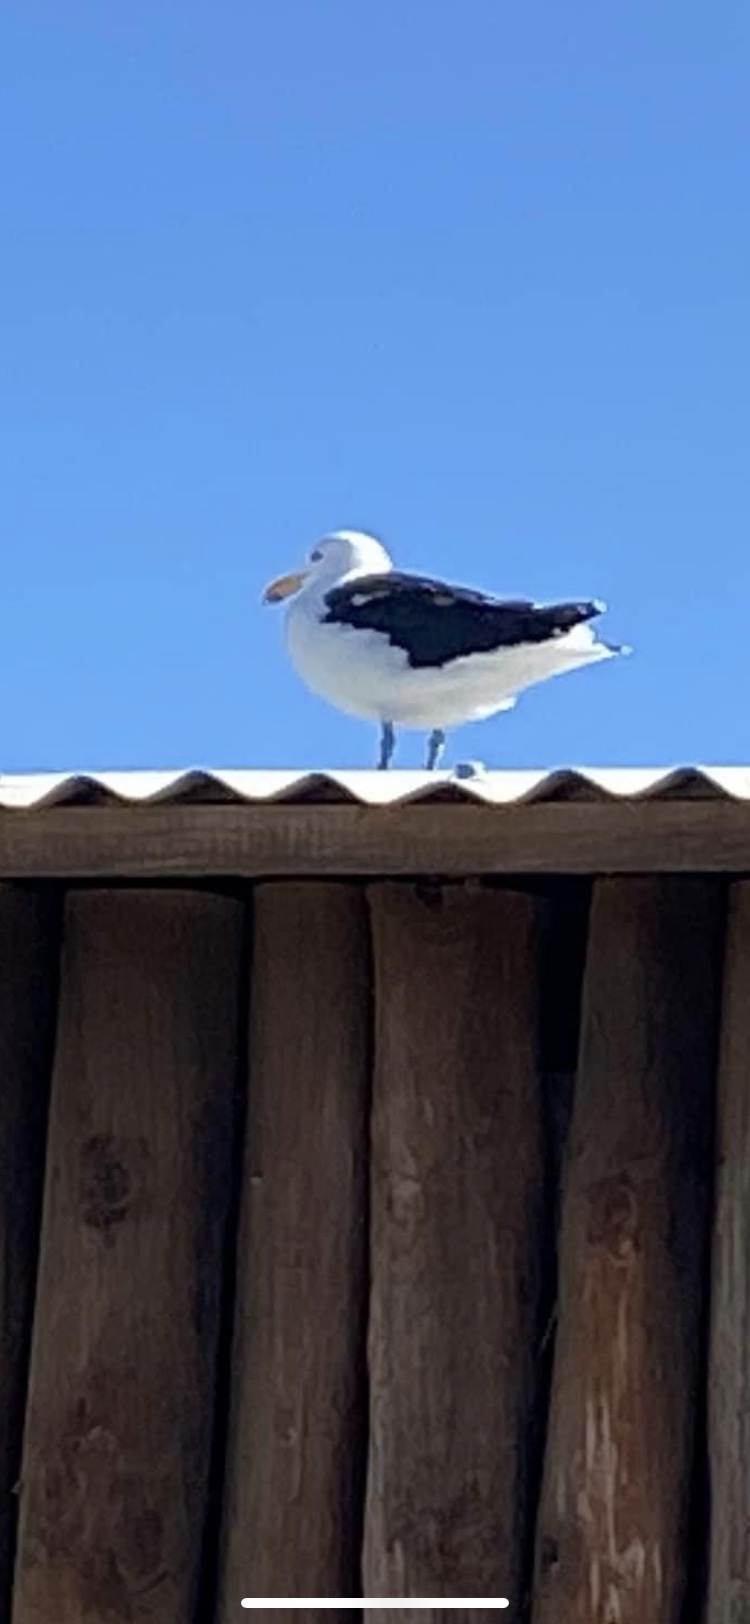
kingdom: Animalia
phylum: Chordata
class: Aves
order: Charadriiformes
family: Laridae
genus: Larus
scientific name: Larus dominicanus
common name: Kelp gull
